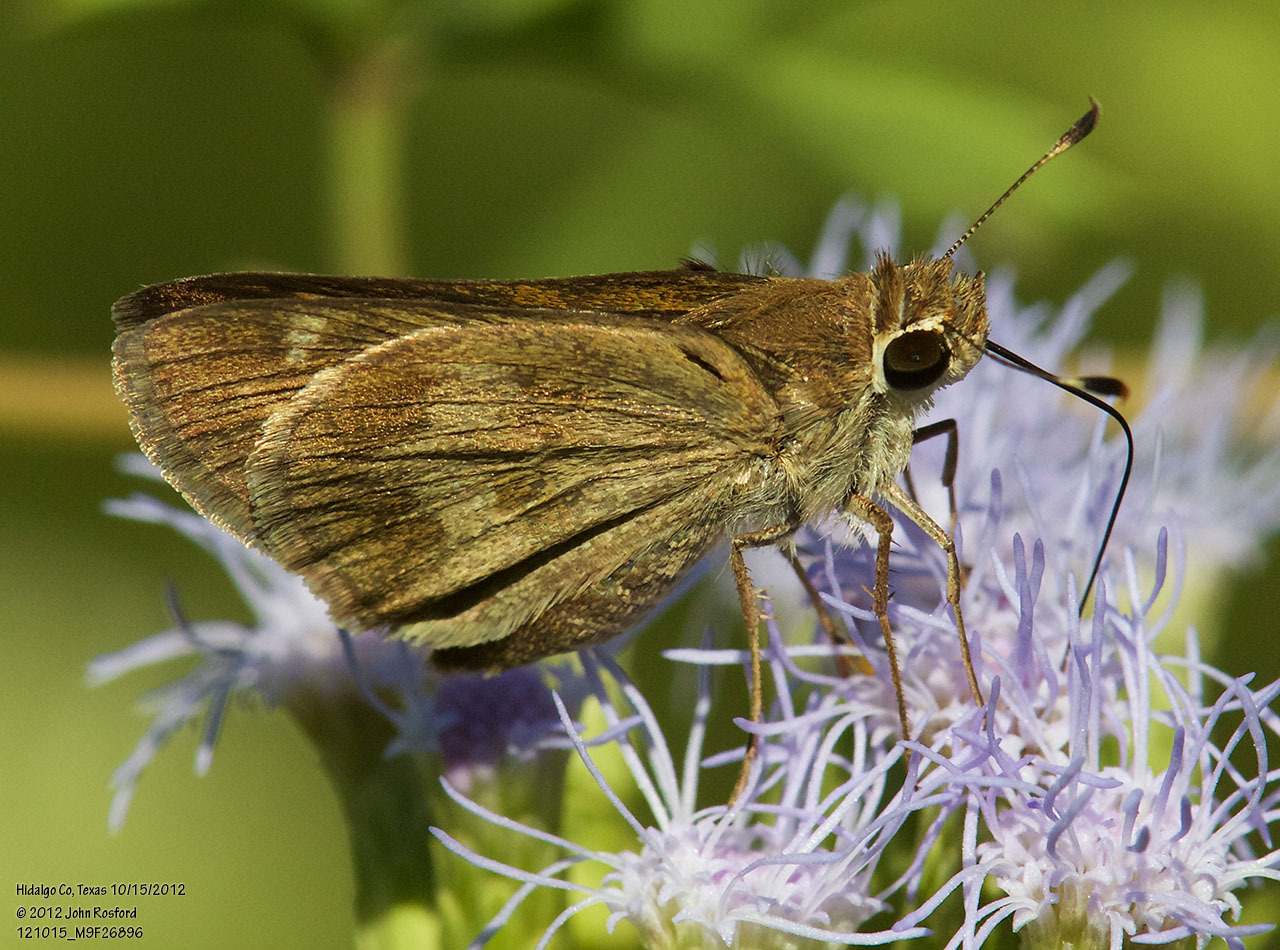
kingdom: Animalia
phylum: Arthropoda
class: Insecta
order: Lepidoptera
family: Hesperiidae
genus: Polites
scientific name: Polites vibex
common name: Whirlabout
